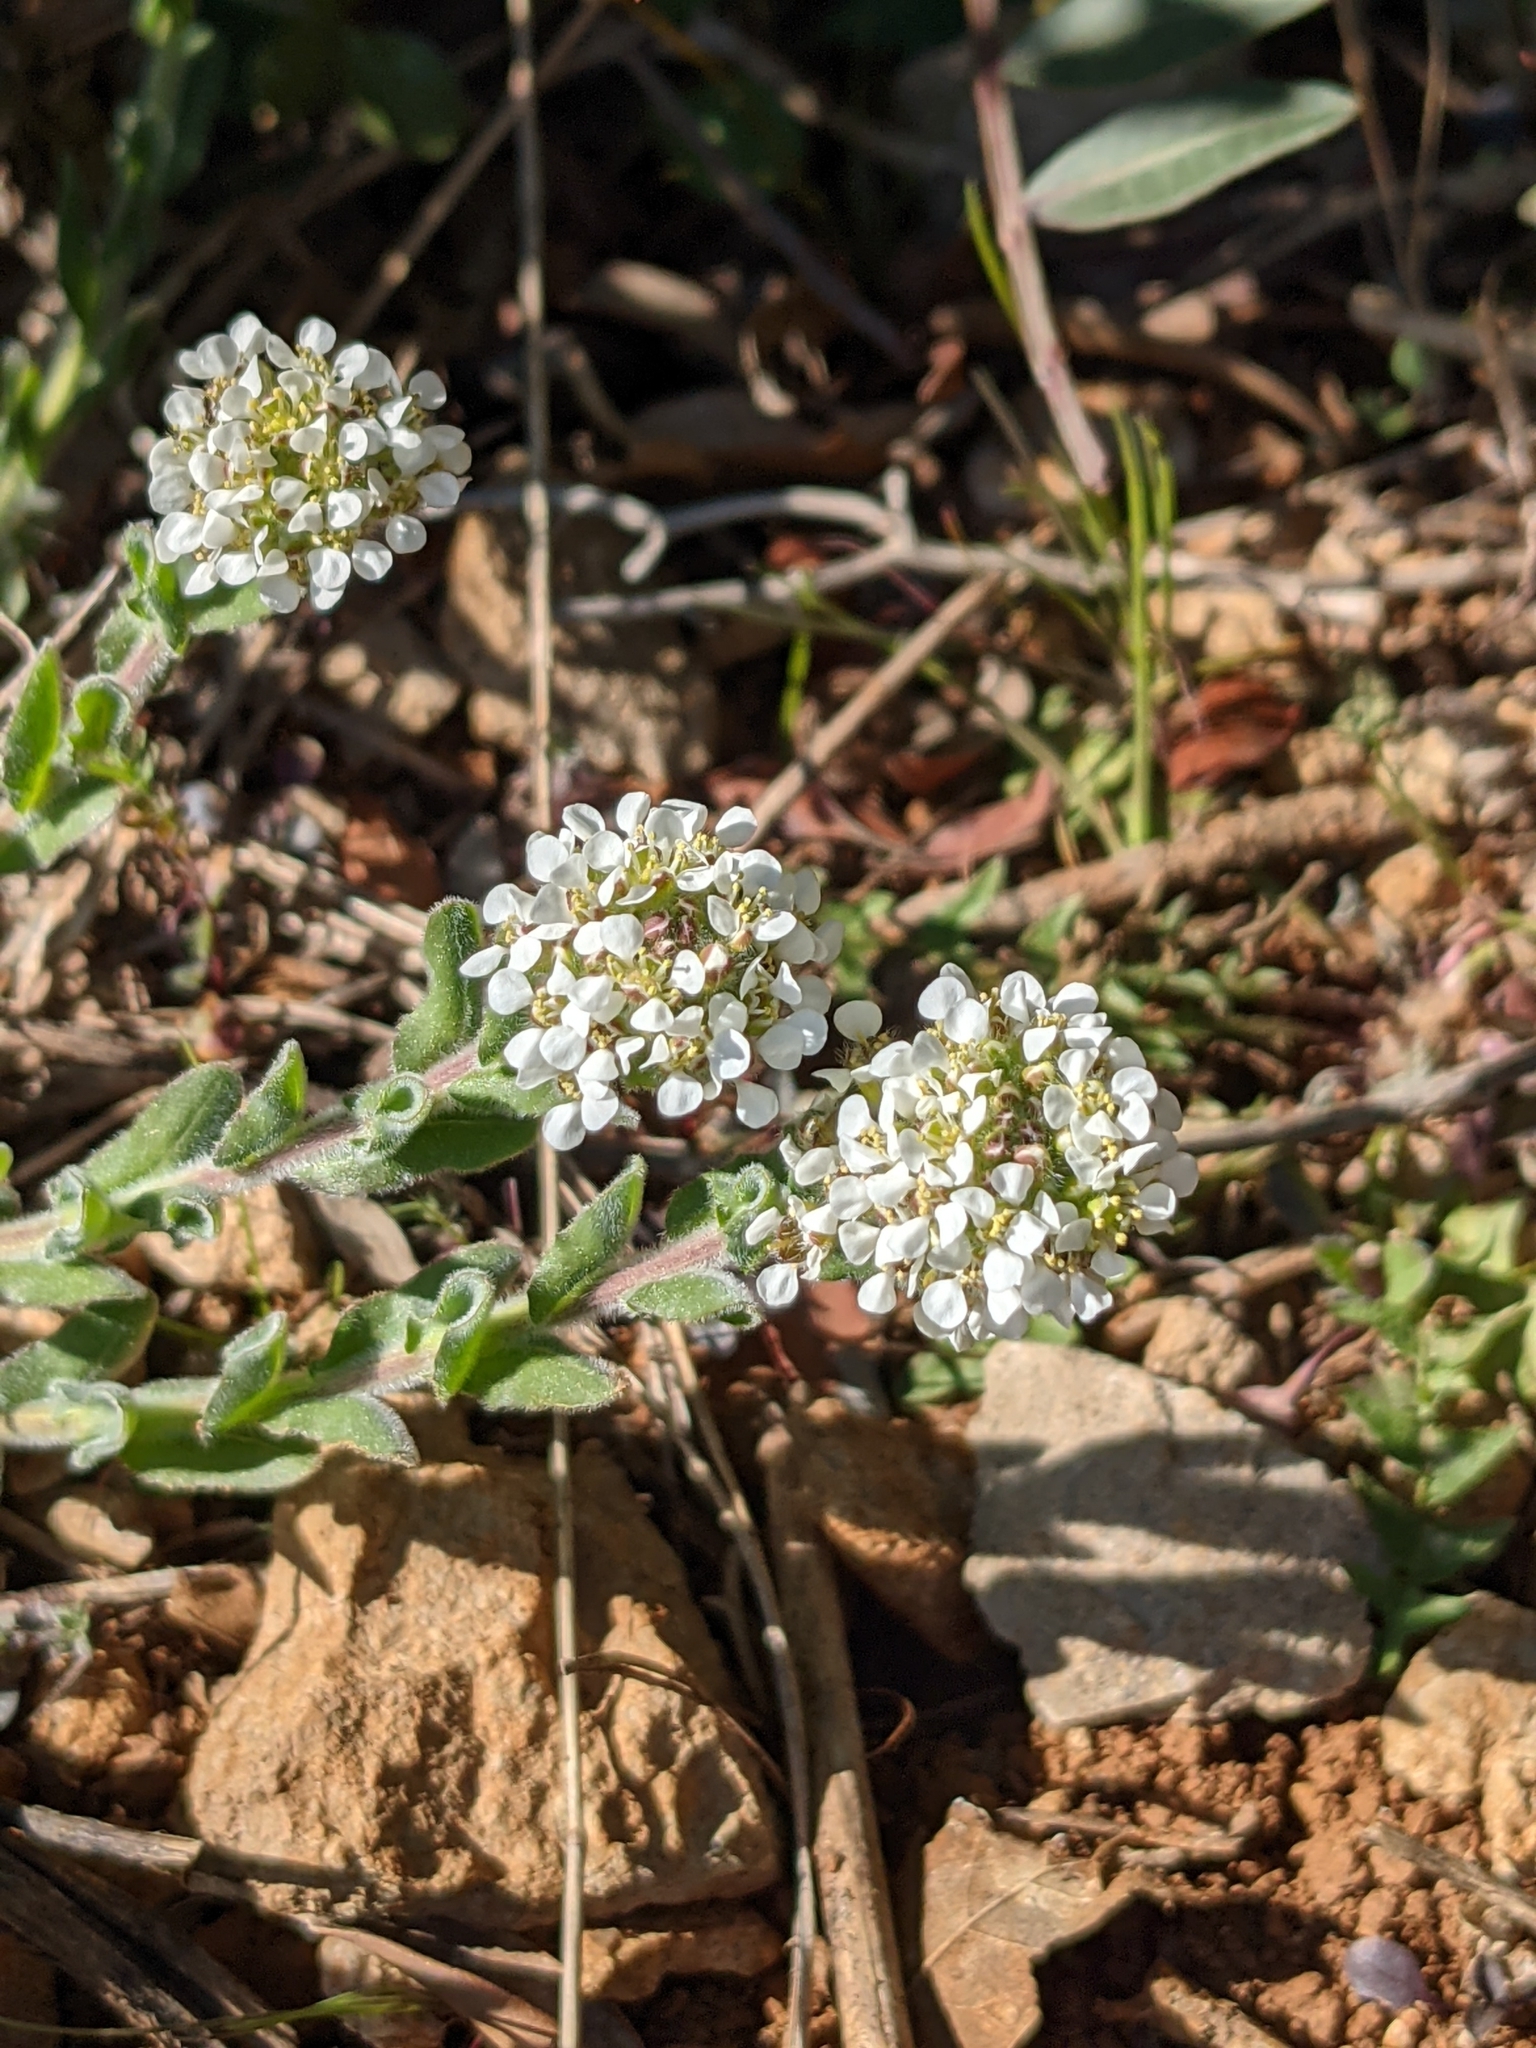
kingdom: Plantae
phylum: Tracheophyta
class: Magnoliopsida
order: Brassicales
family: Brassicaceae
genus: Lepidium
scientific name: Lepidium hirtum
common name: Mediterranean pepperweed
